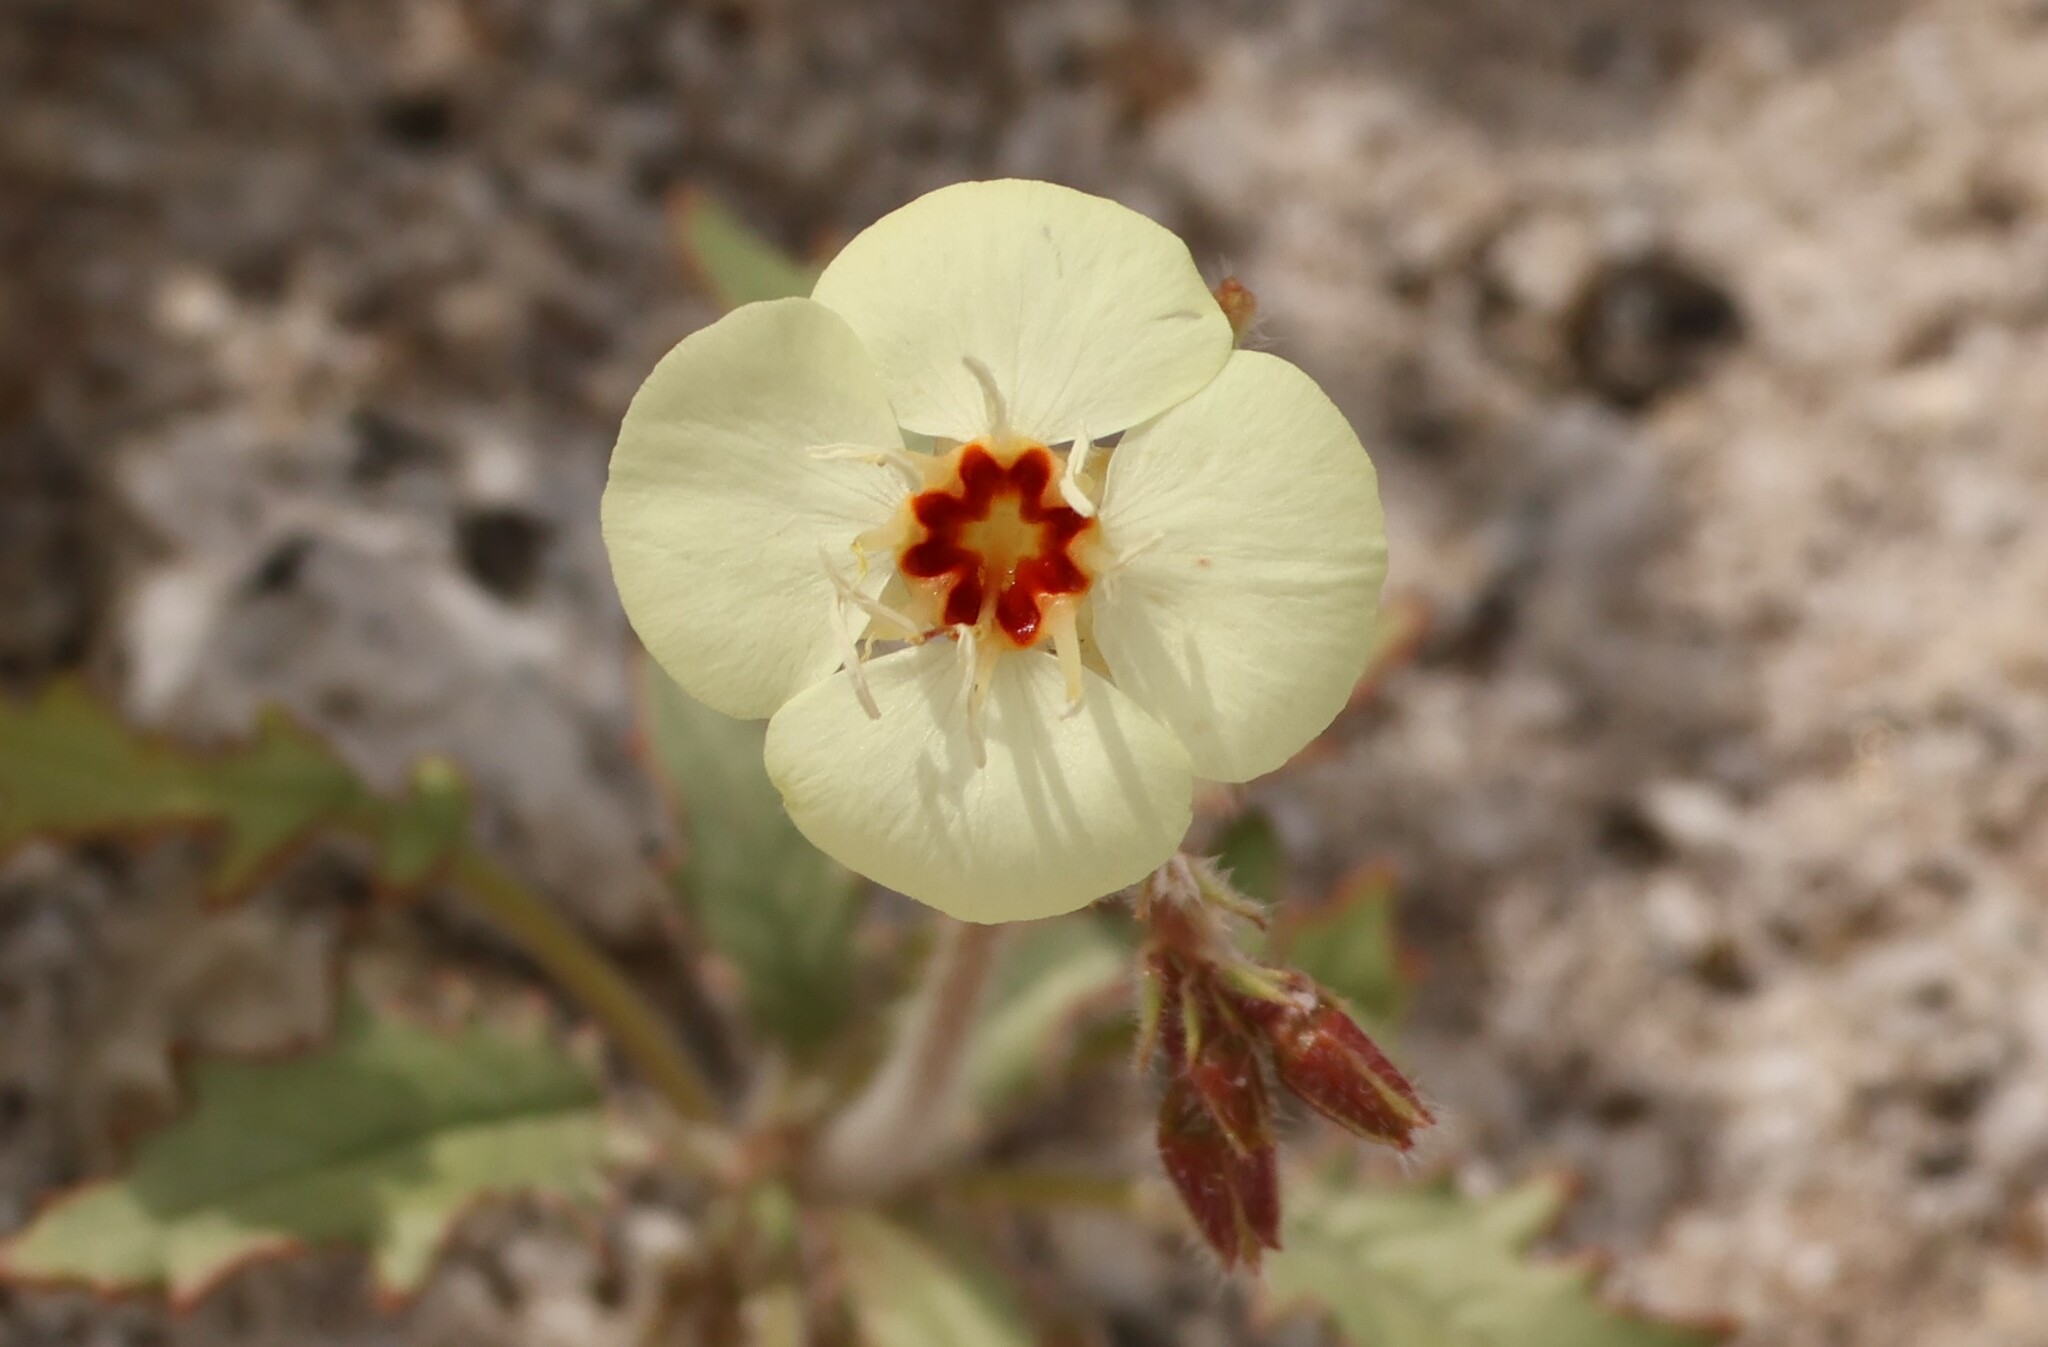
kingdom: Plantae
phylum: Tracheophyta
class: Magnoliopsida
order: Myrtales
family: Onagraceae
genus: Chylismia
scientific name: Chylismia claviformis
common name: Browneyes
